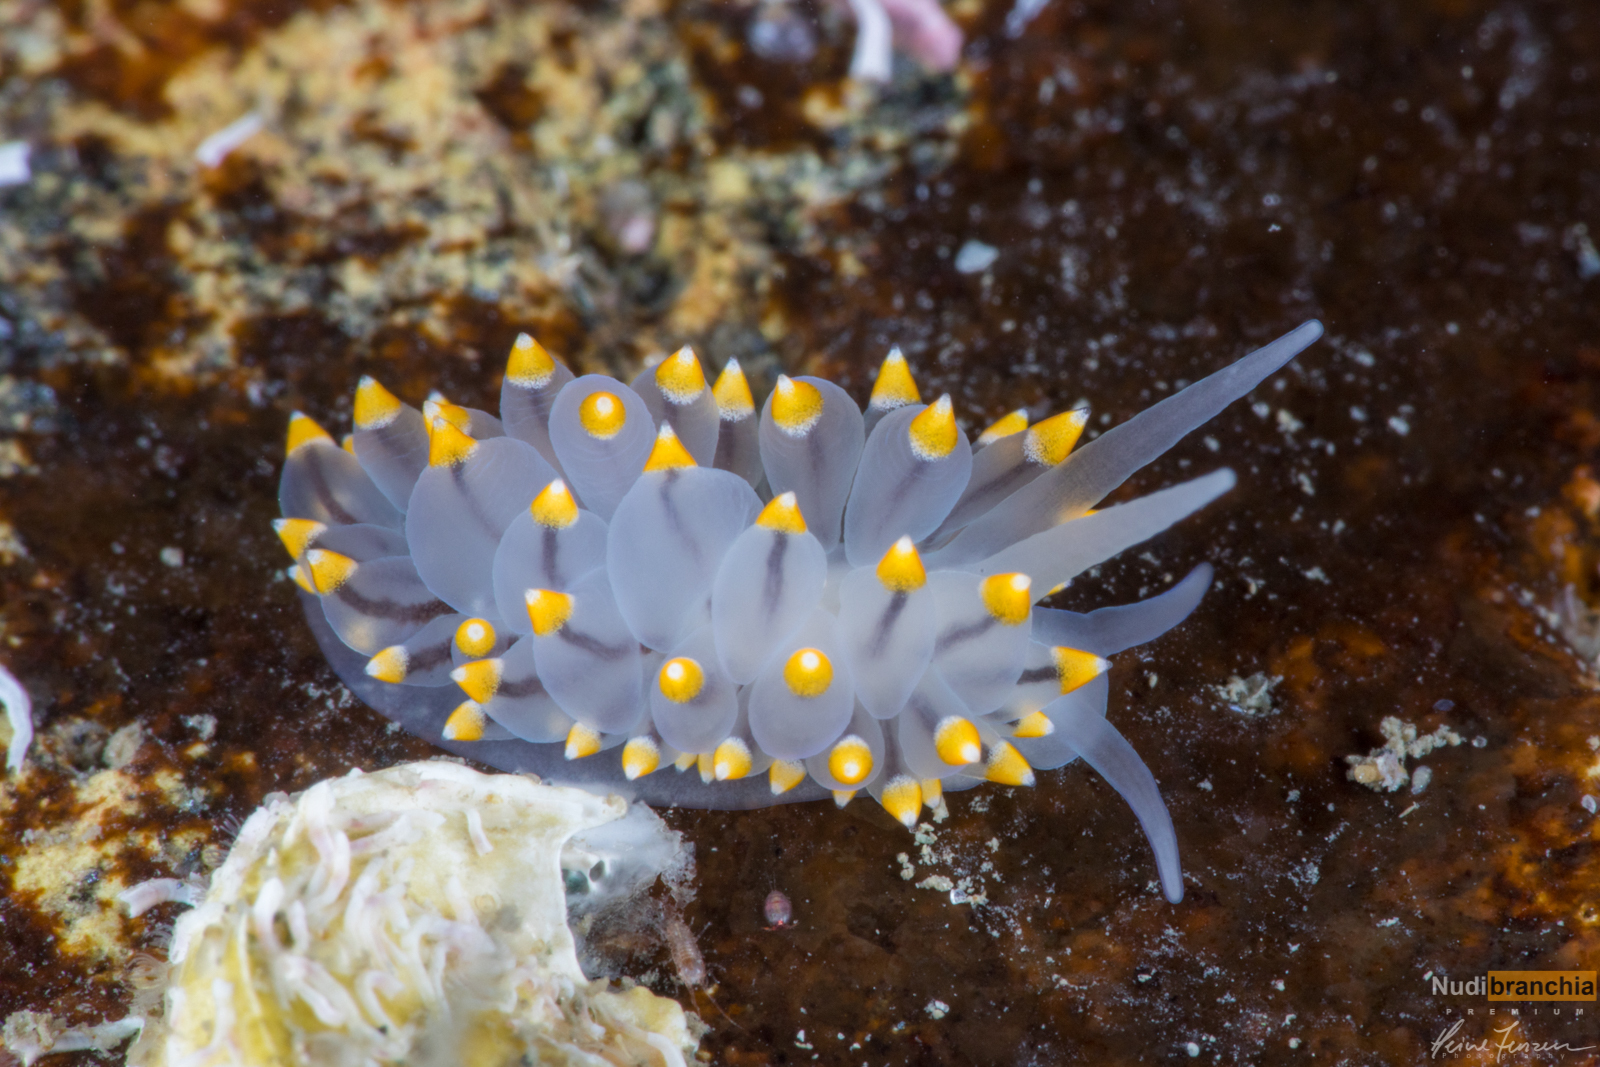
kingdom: Animalia
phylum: Mollusca
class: Gastropoda
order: Nudibranchia
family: Eubranchidae
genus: Eubranchus
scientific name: Eubranchus tricolor
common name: Painted balloon aeolis
